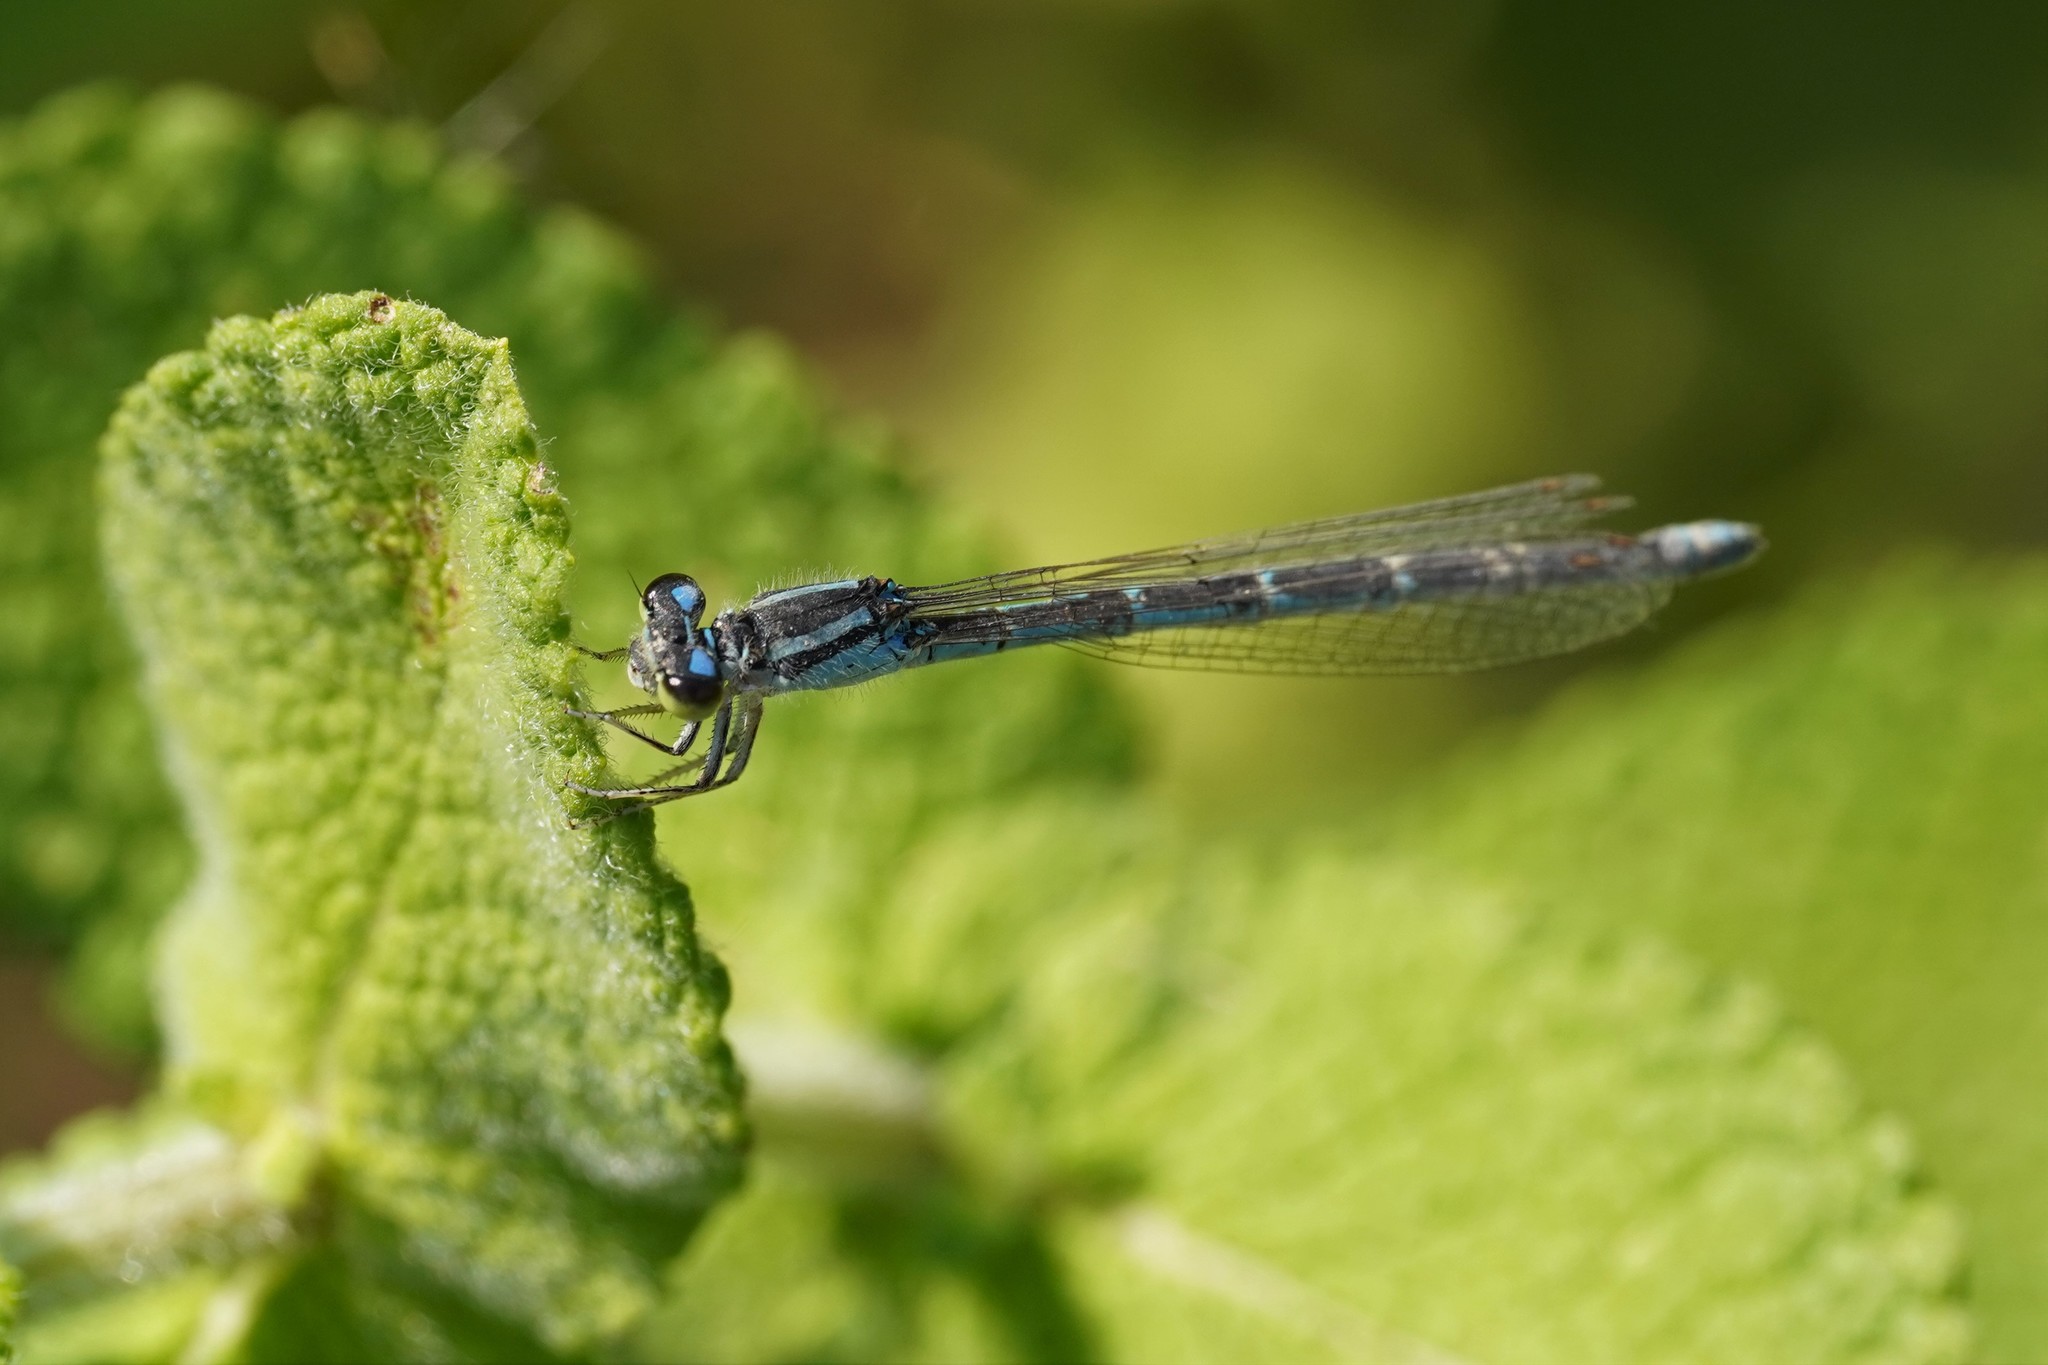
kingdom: Animalia
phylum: Arthropoda
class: Insecta
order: Odonata
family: Coenagrionidae
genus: Coenagrion
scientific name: Coenagrion caerulescens
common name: Mediterranean bluet
